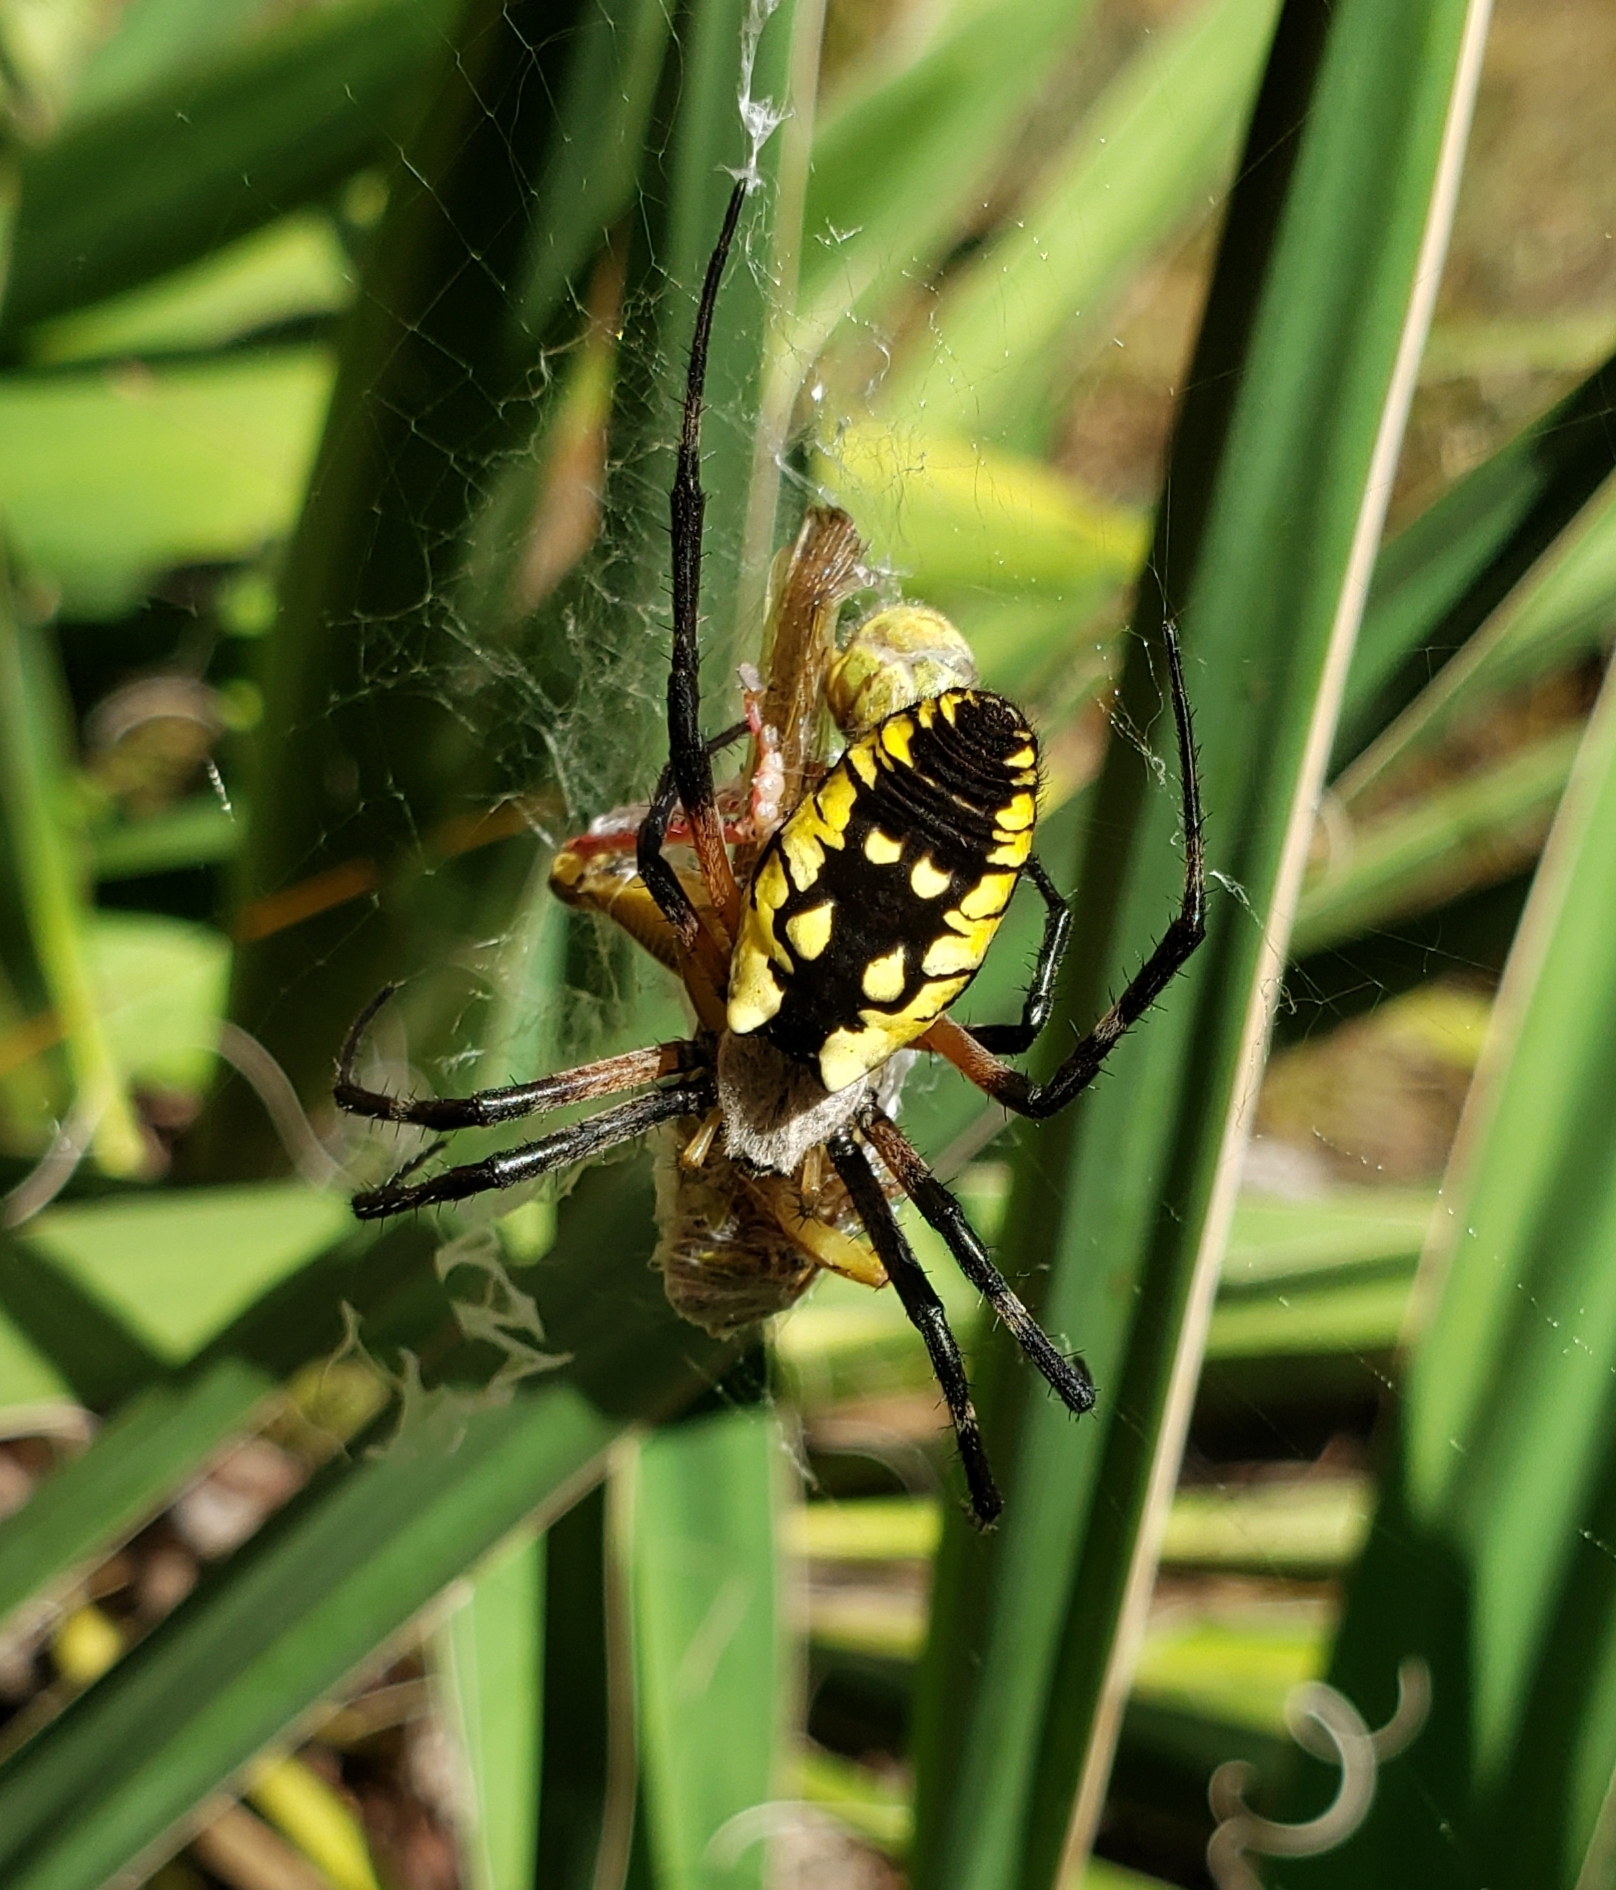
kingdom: Animalia
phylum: Arthropoda
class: Arachnida
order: Araneae
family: Araneidae
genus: Argiope
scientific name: Argiope aurantia
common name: Orb weavers
